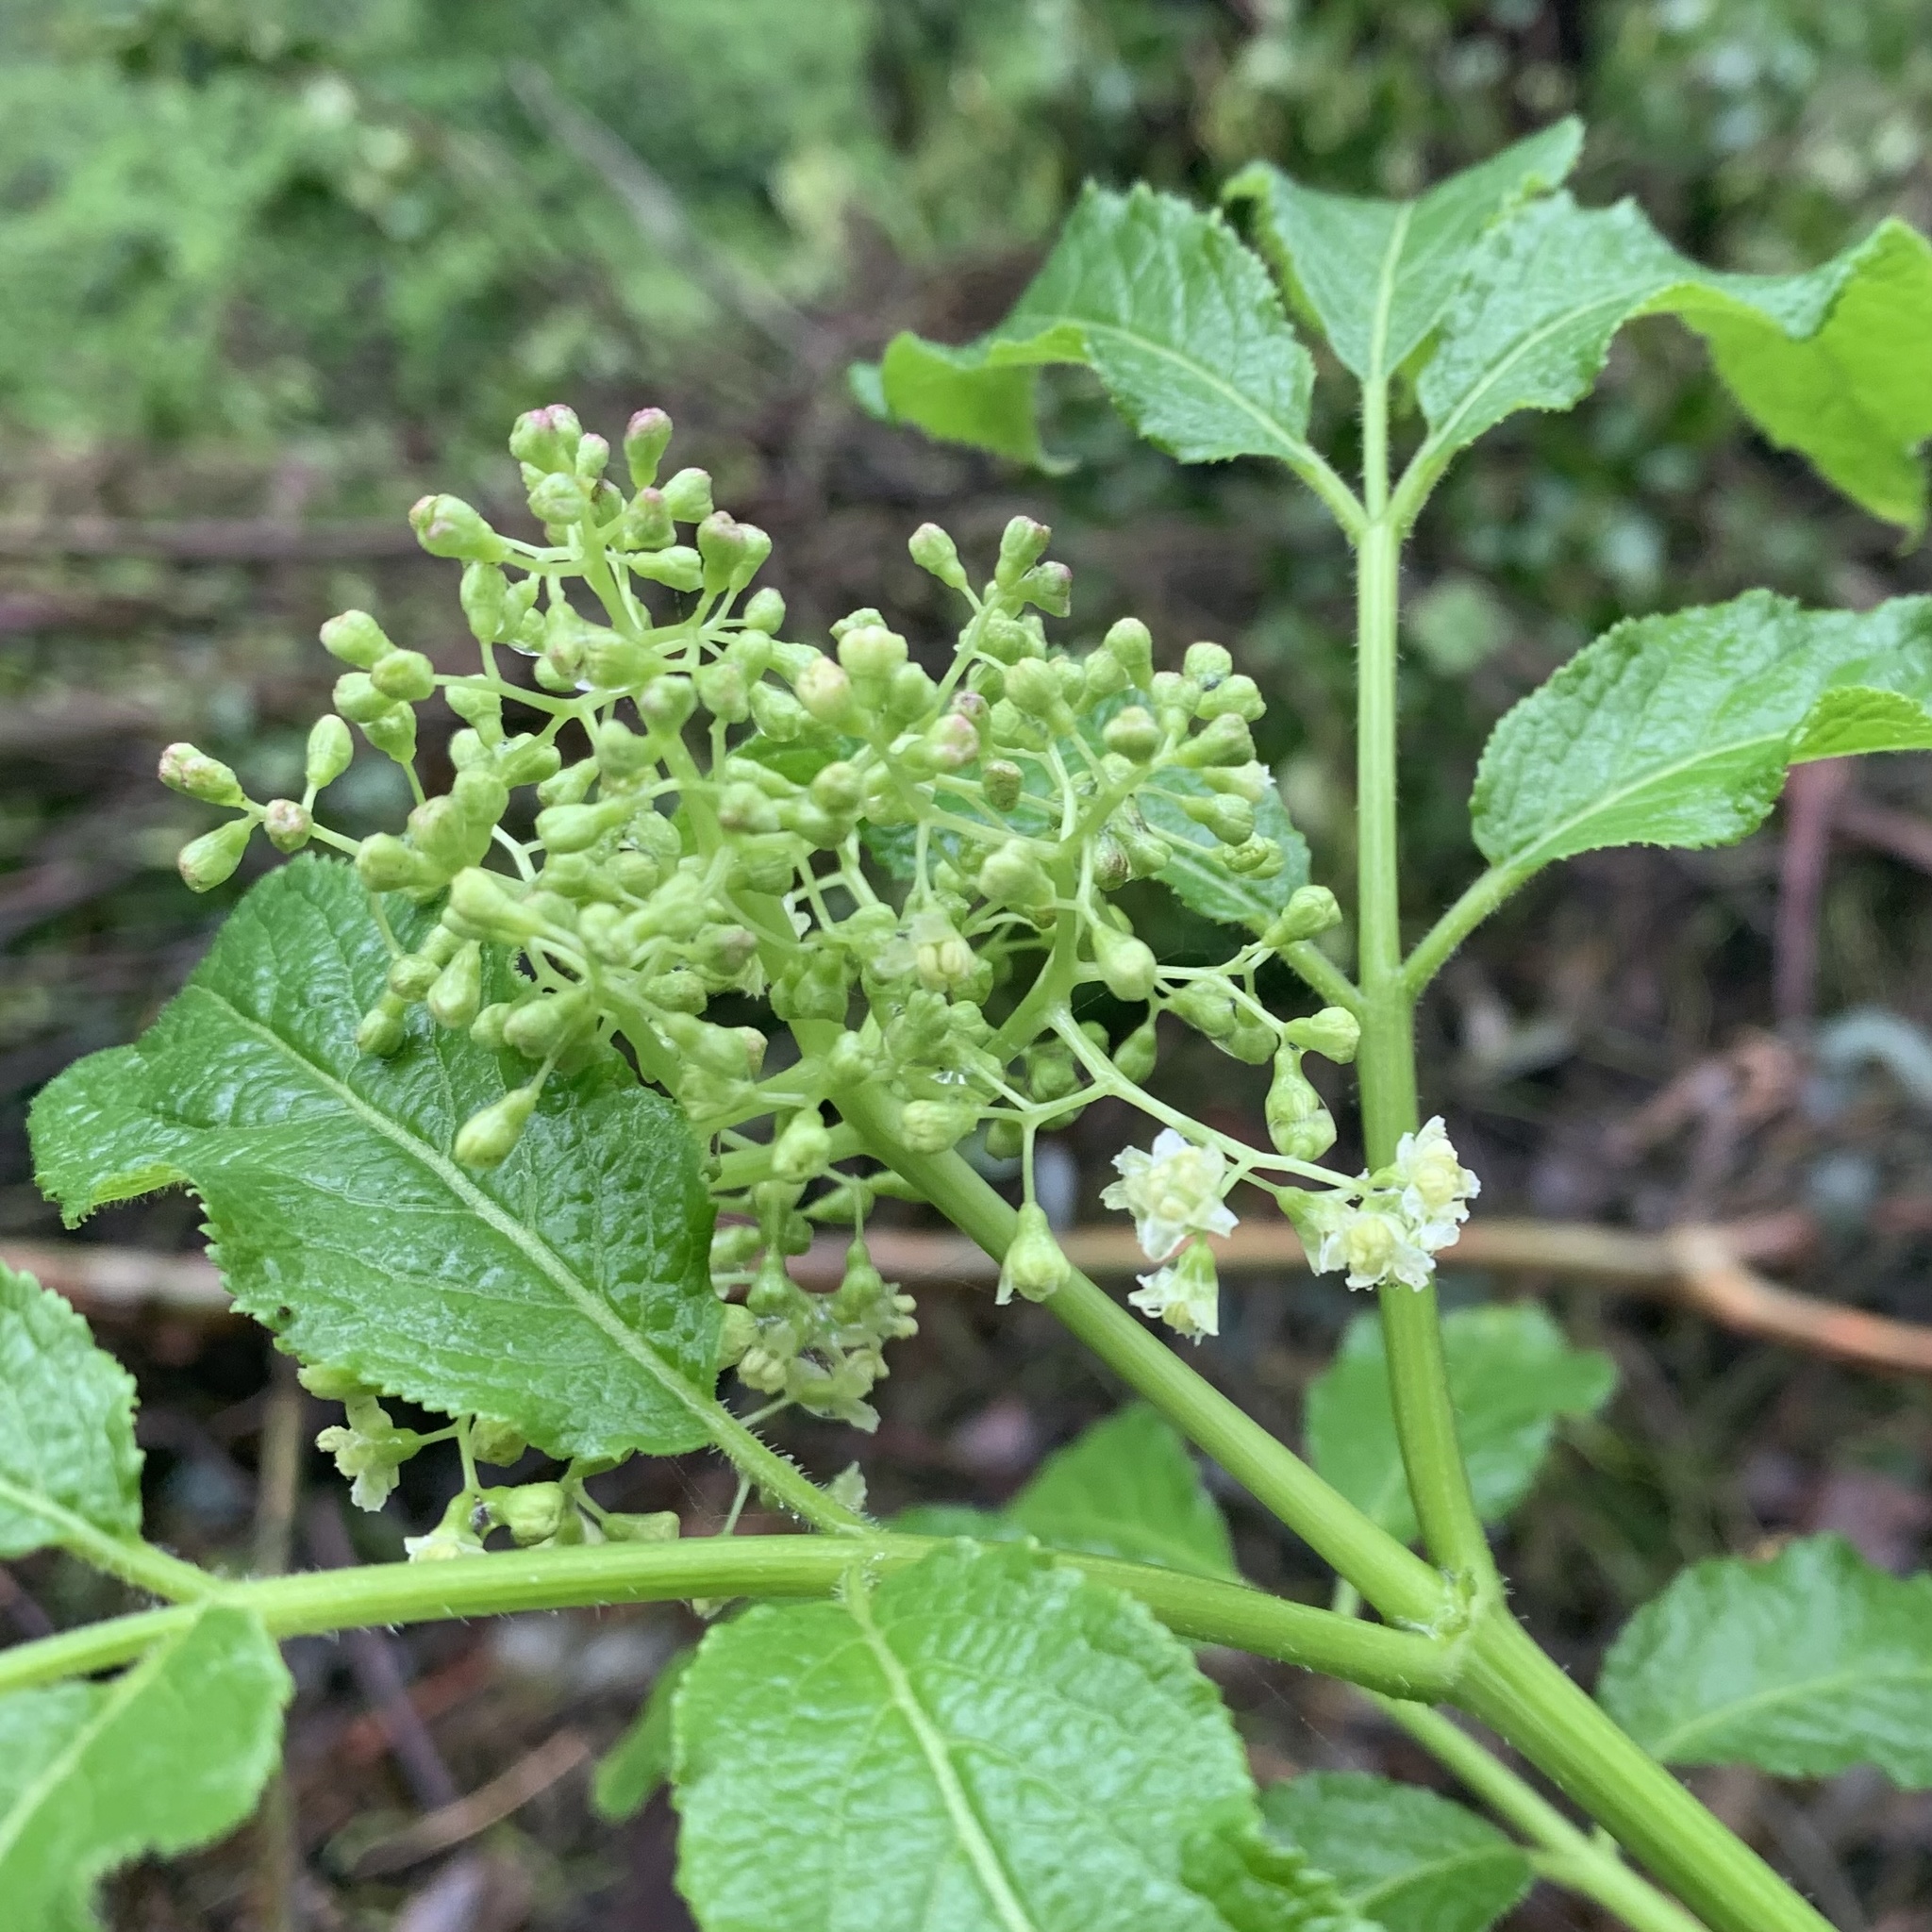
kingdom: Plantae
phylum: Tracheophyta
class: Magnoliopsida
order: Dipsacales
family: Viburnaceae
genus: Sambucus
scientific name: Sambucus racemosa
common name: Red-berried elder
